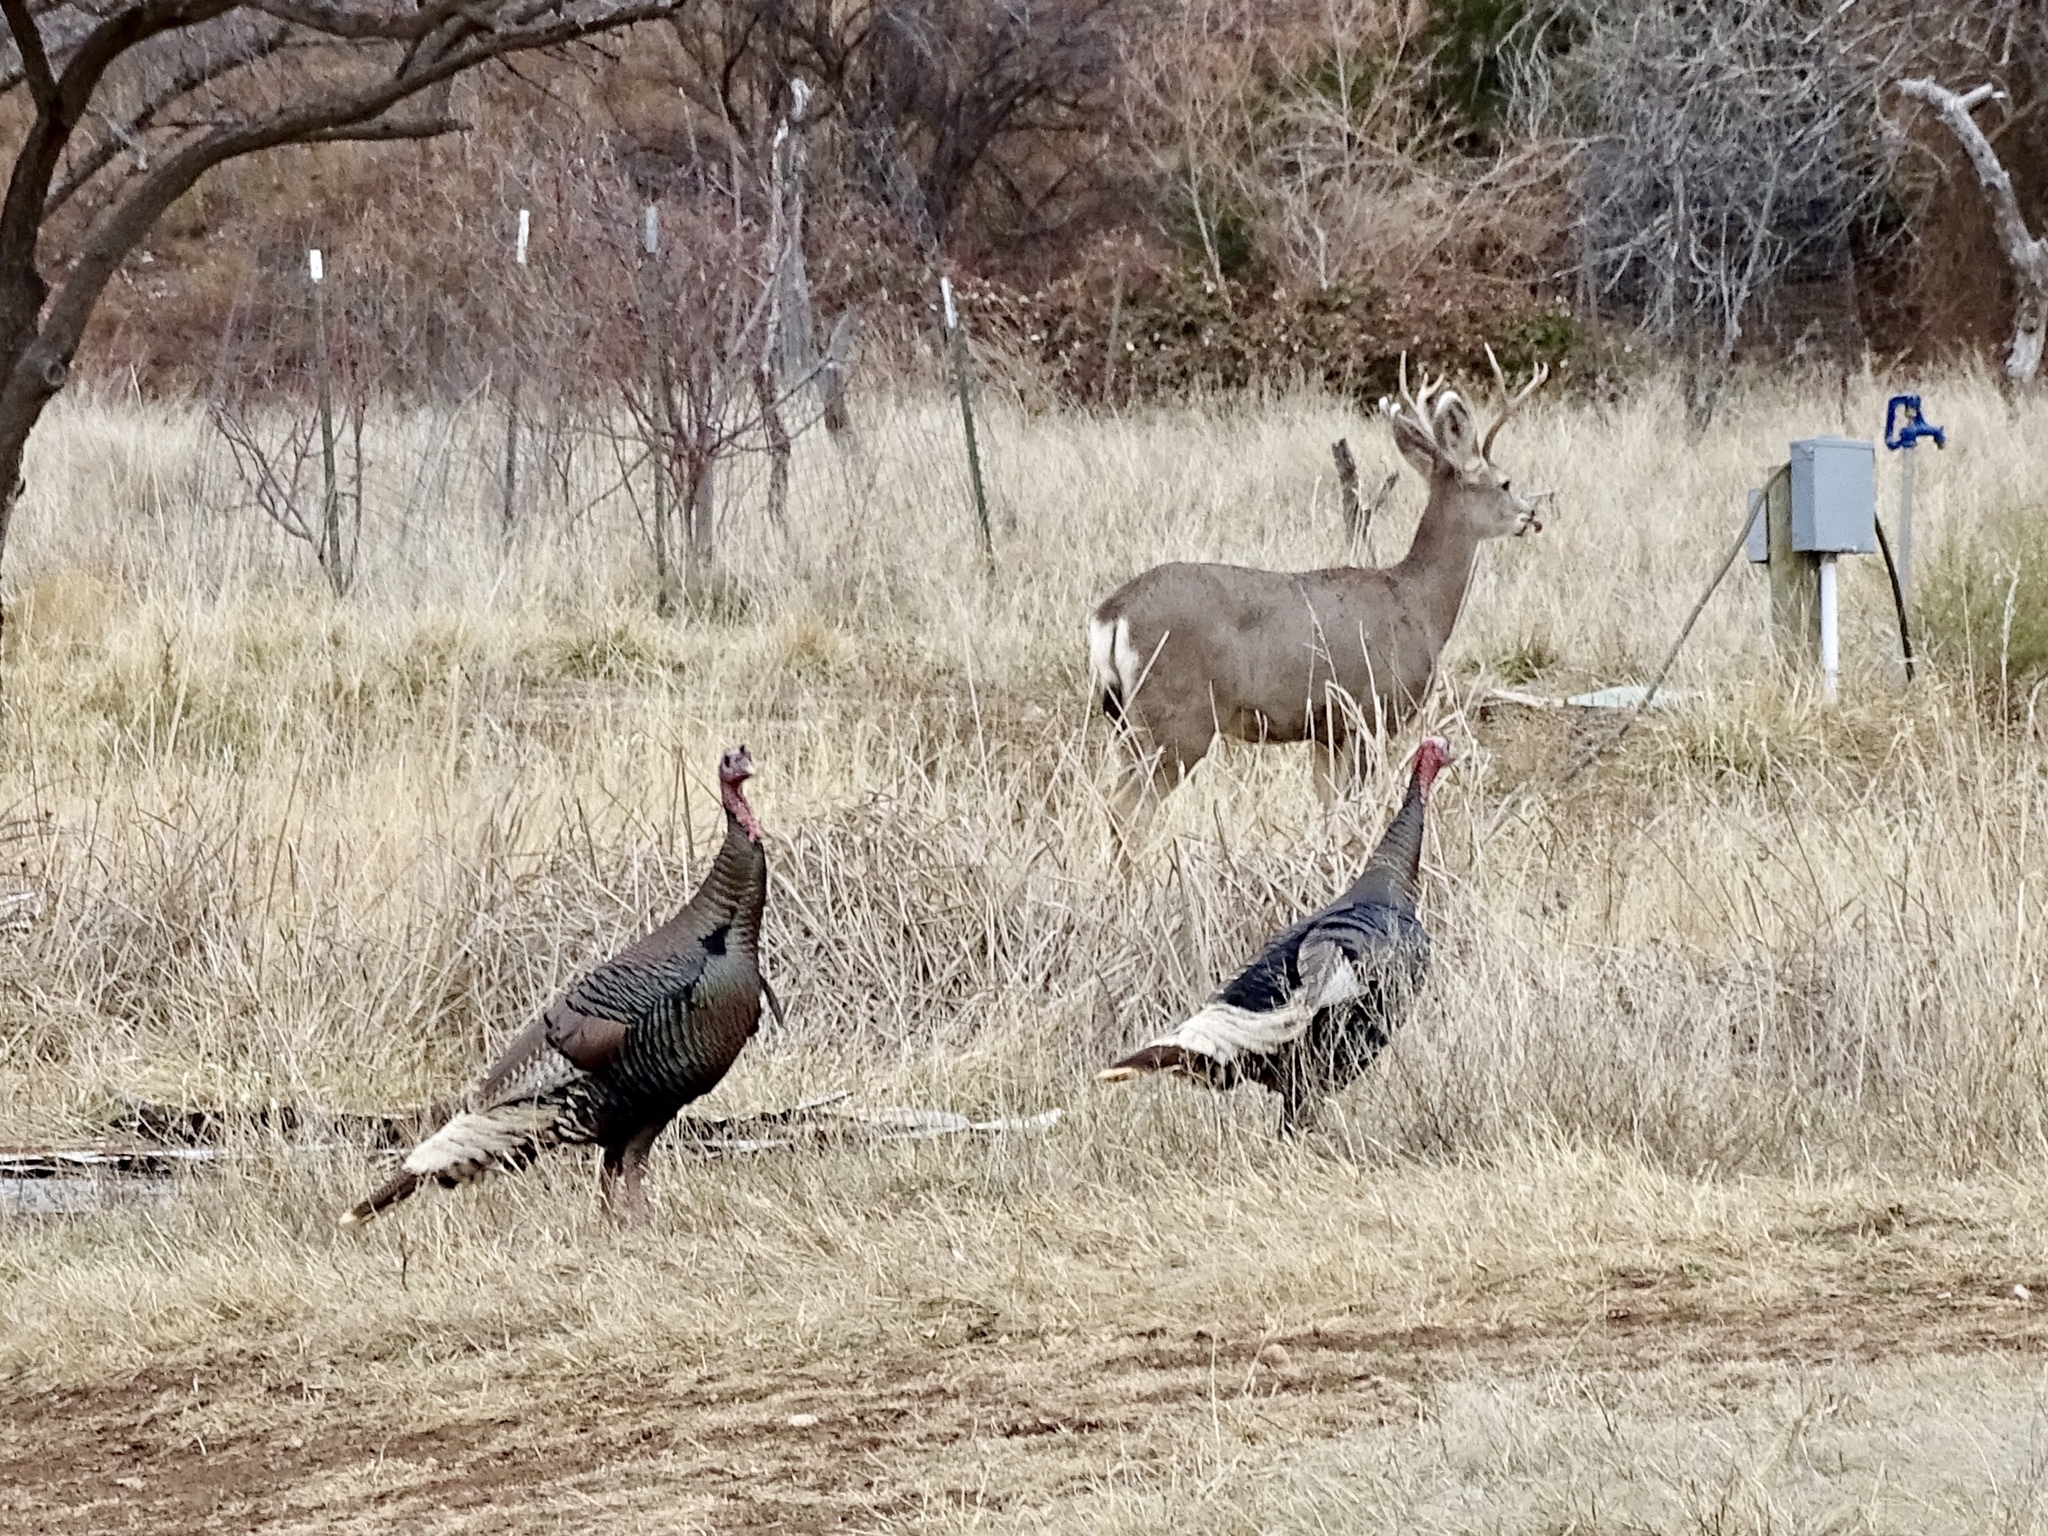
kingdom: Animalia
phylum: Chordata
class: Aves
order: Galliformes
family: Phasianidae
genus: Meleagris
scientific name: Meleagris gallopavo
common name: Wild turkey
